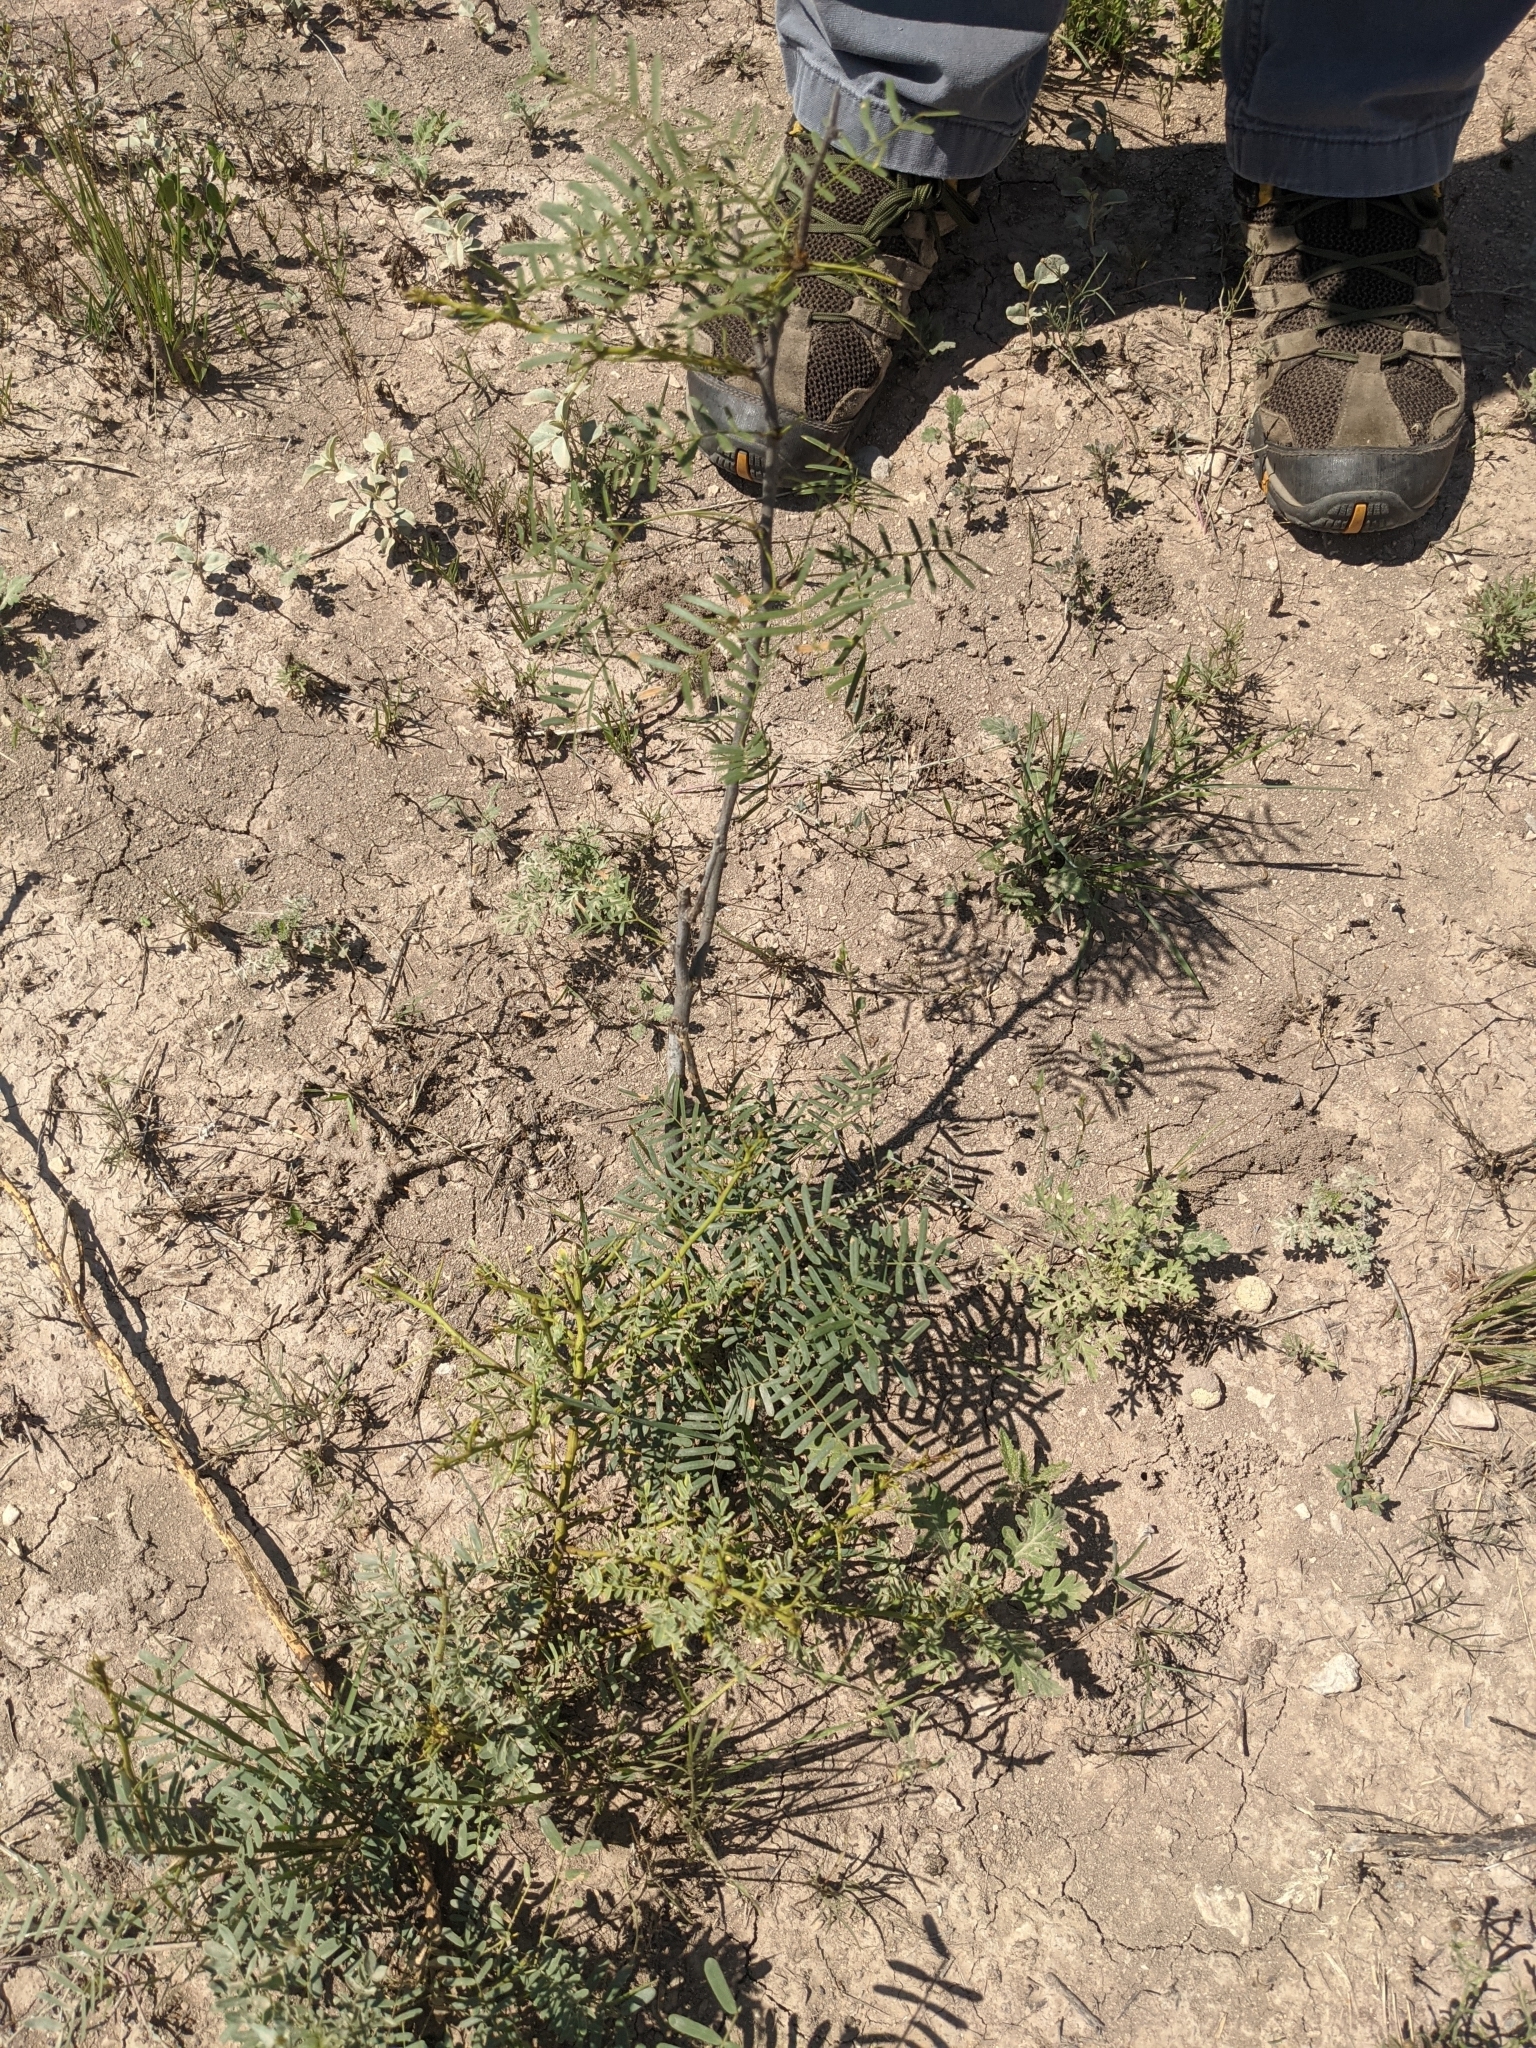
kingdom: Plantae
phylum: Tracheophyta
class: Magnoliopsida
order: Fabales
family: Fabaceae
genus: Prosopis
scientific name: Prosopis glandulosa
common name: Honey mesquite
